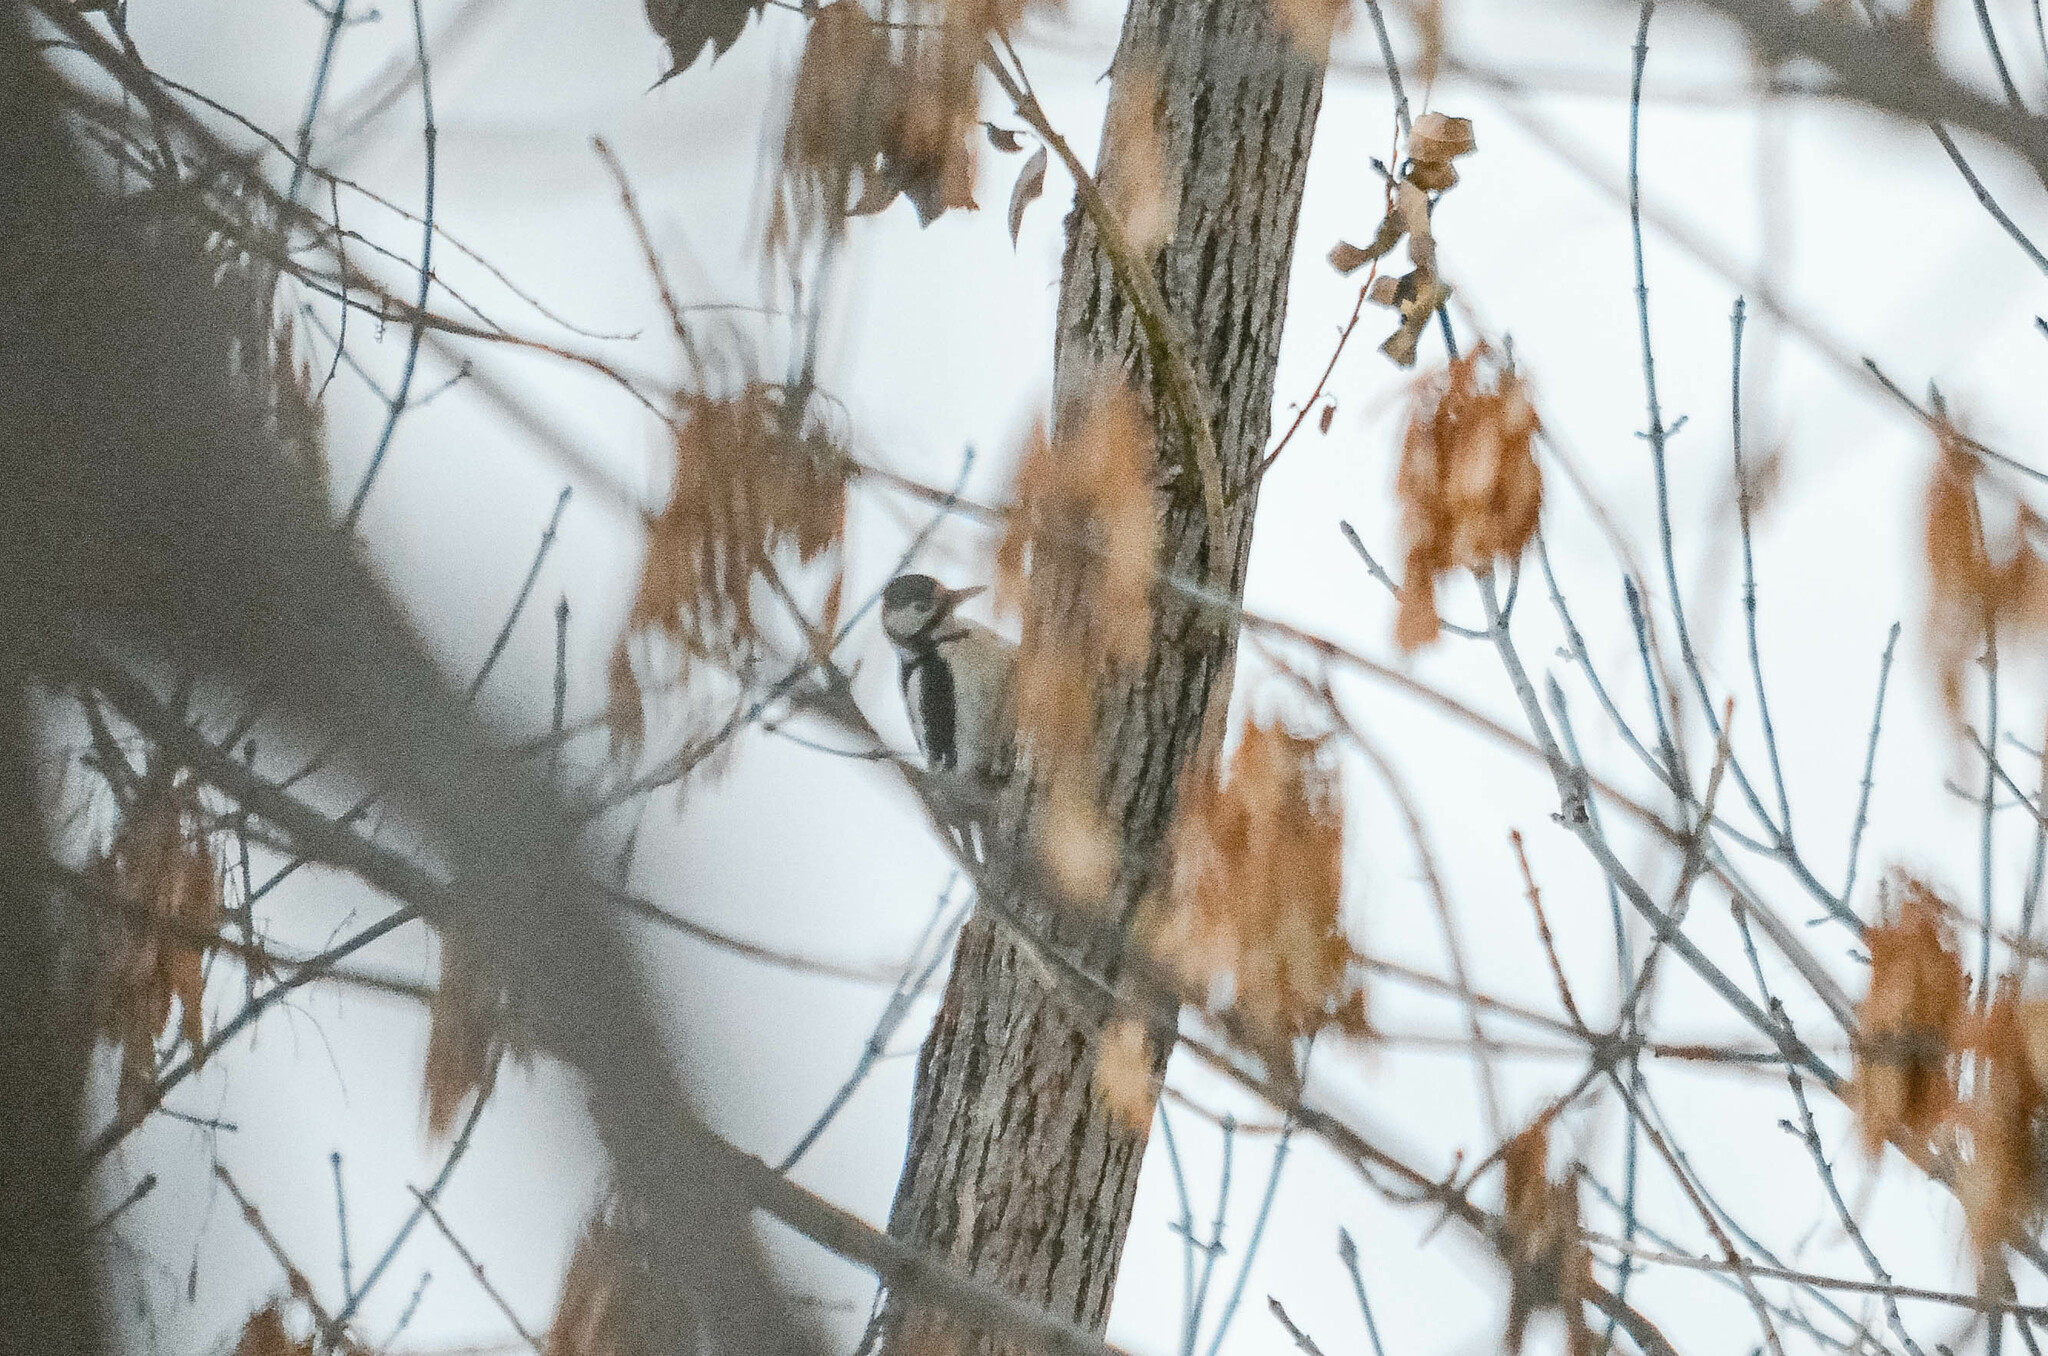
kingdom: Animalia
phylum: Chordata
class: Aves
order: Piciformes
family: Picidae
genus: Dendrocopos
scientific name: Dendrocopos major
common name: Great spotted woodpecker
